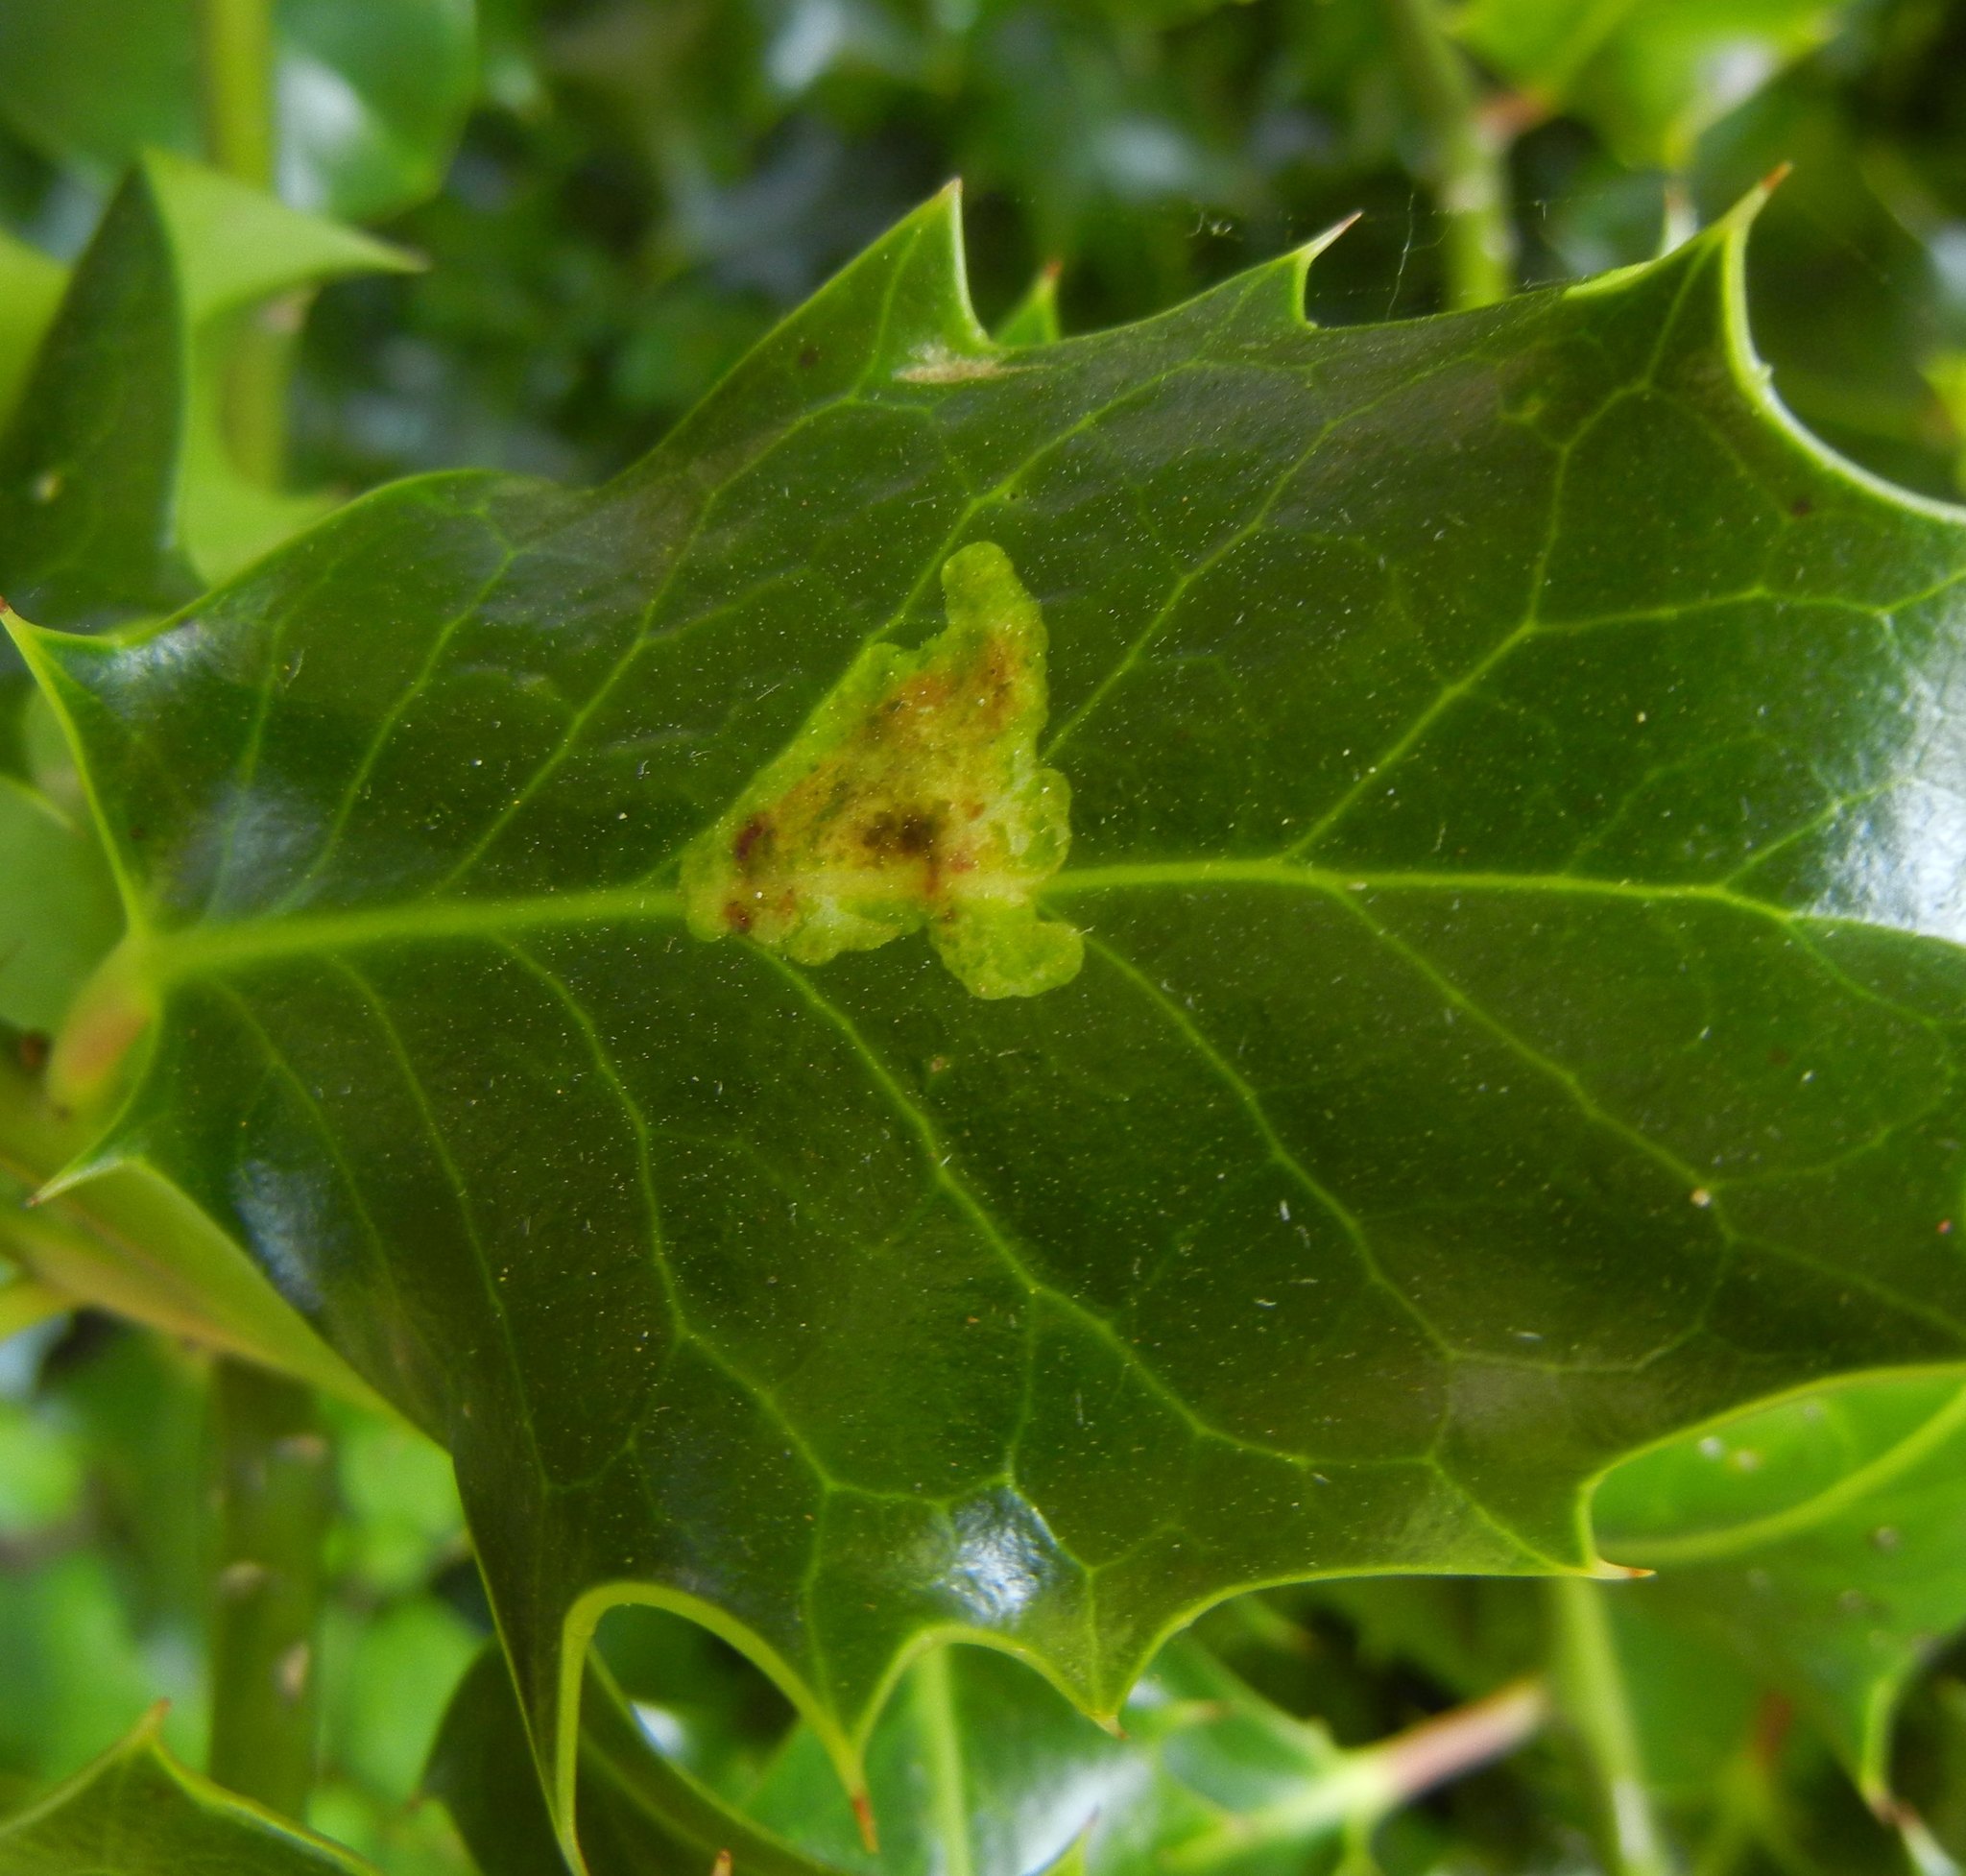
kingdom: Animalia
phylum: Arthropoda
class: Insecta
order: Diptera
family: Agromyzidae
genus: Phytomyza
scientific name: Phytomyza ilicis
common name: Holly leafminer
